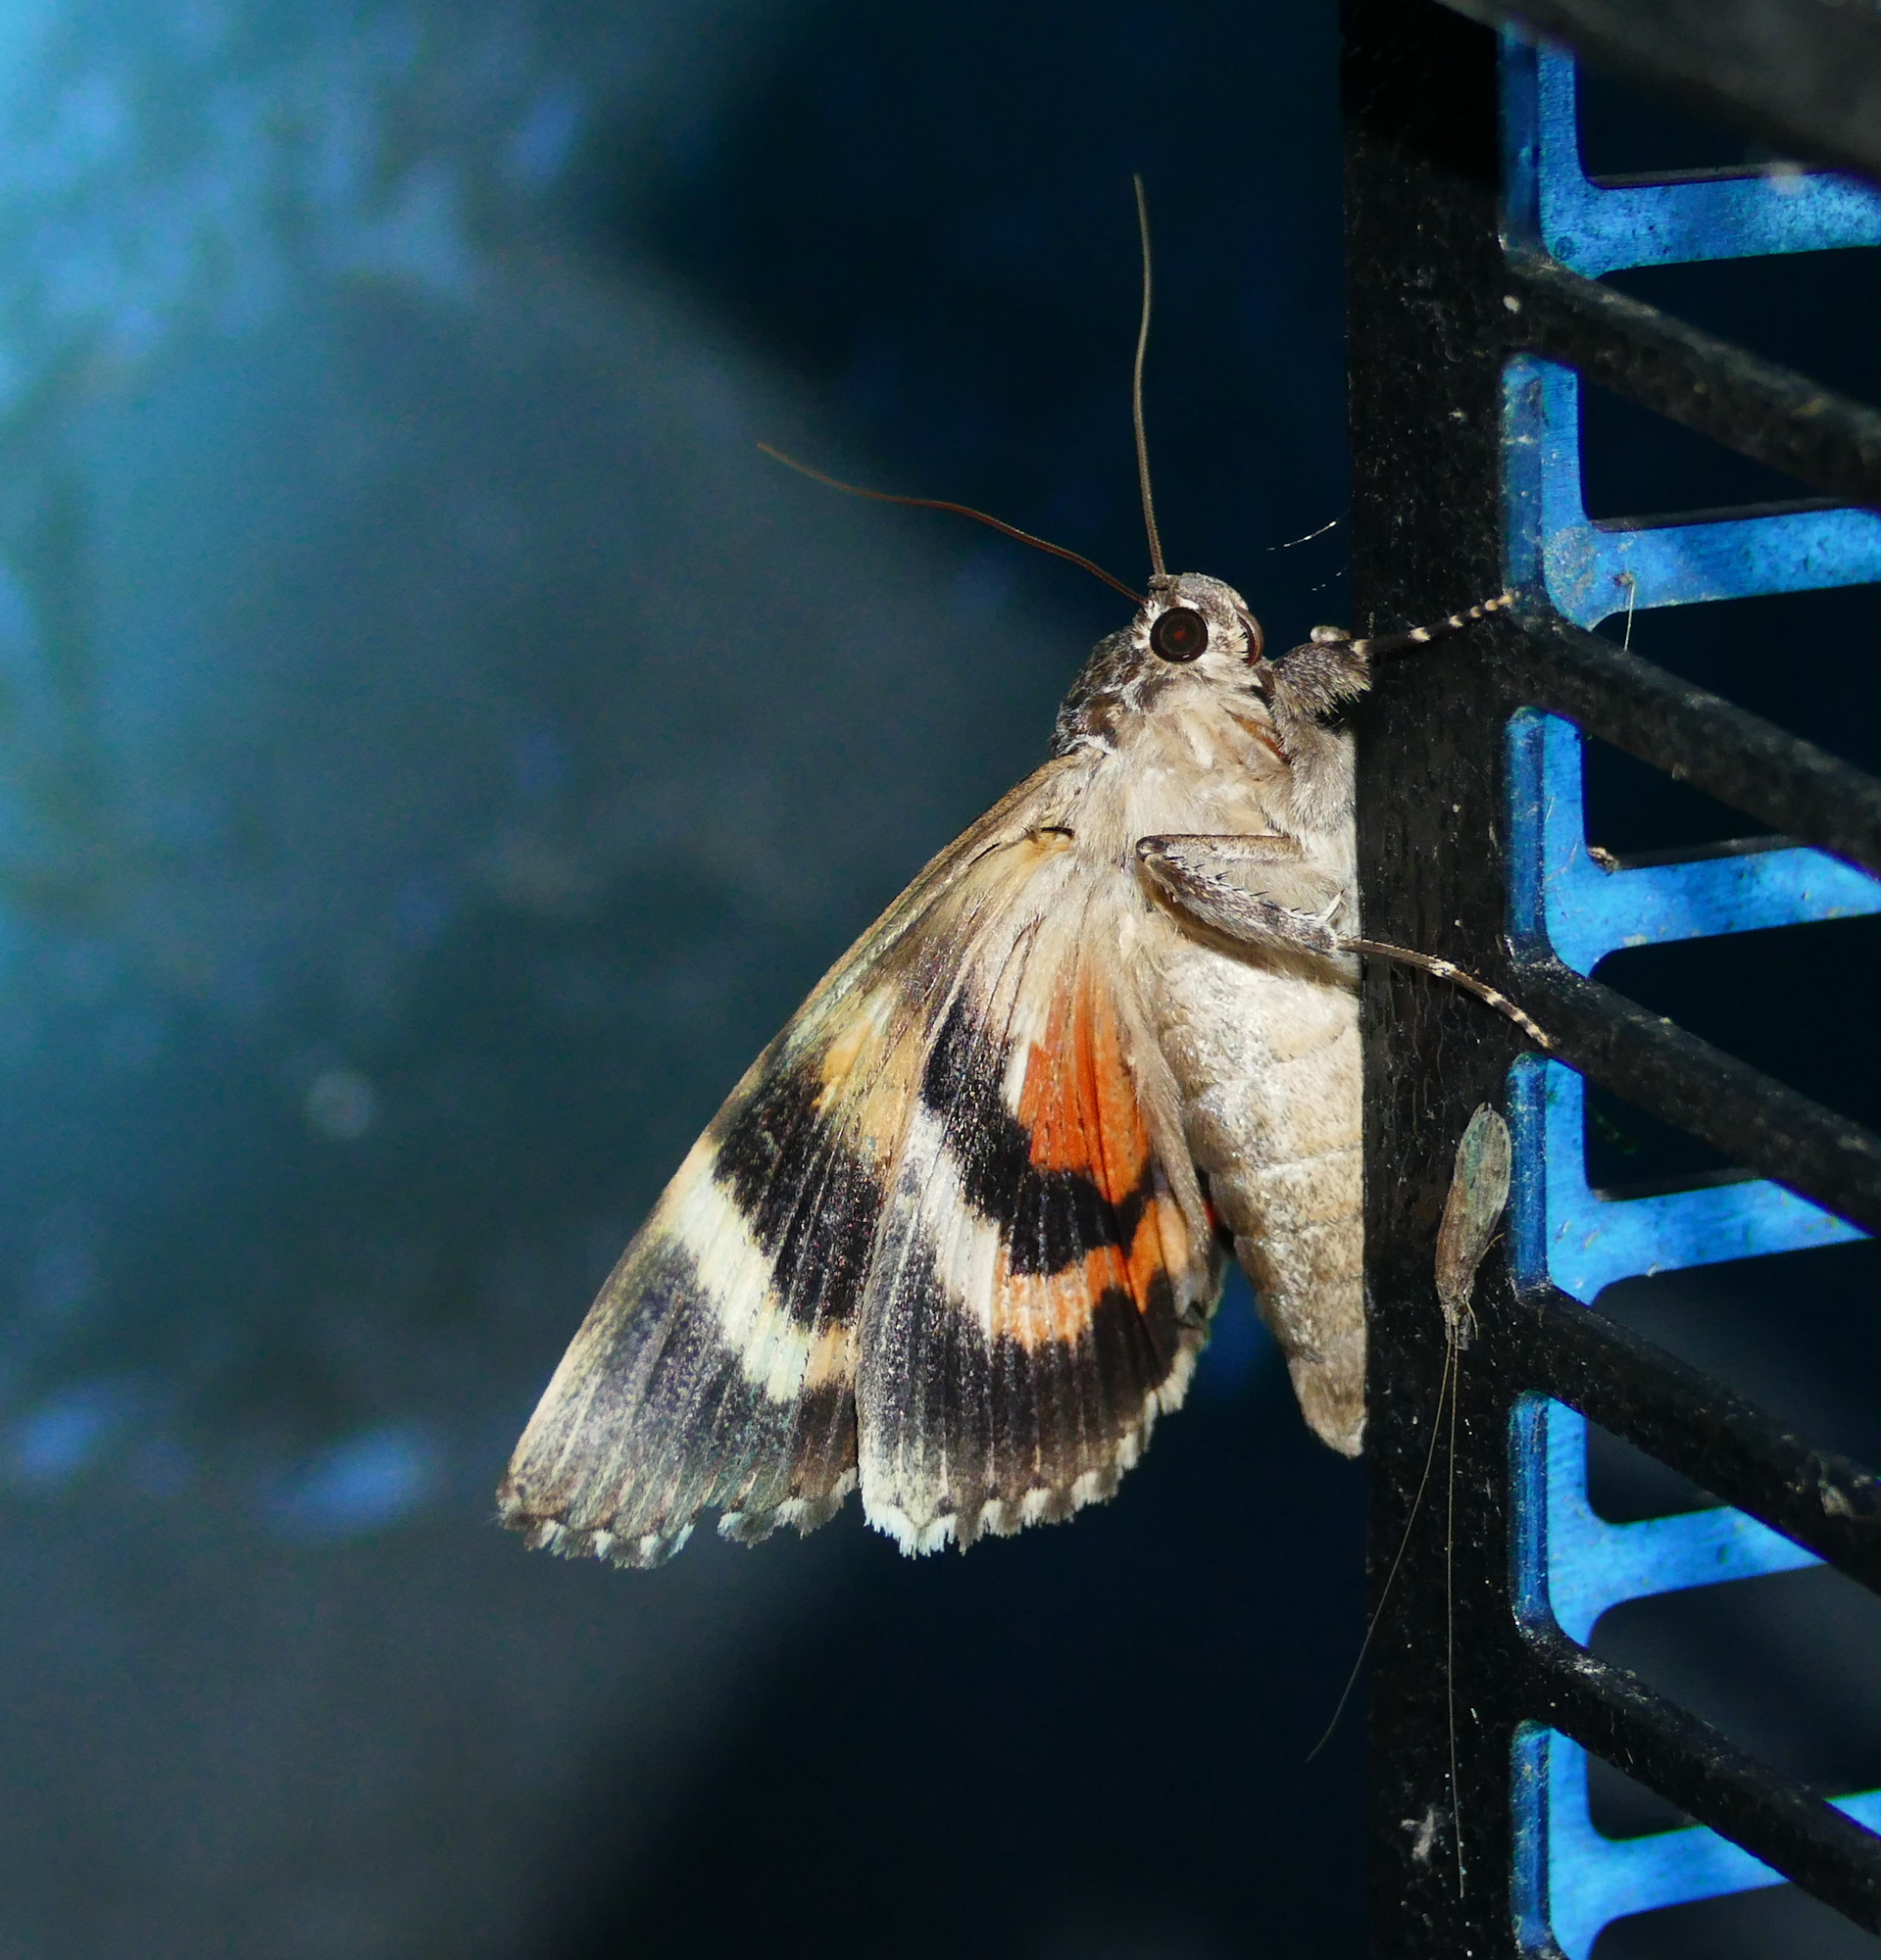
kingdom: Animalia
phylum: Arthropoda
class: Insecta
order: Lepidoptera
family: Erebidae
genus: Catocala
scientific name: Catocala ilia
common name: Ilia underwing
